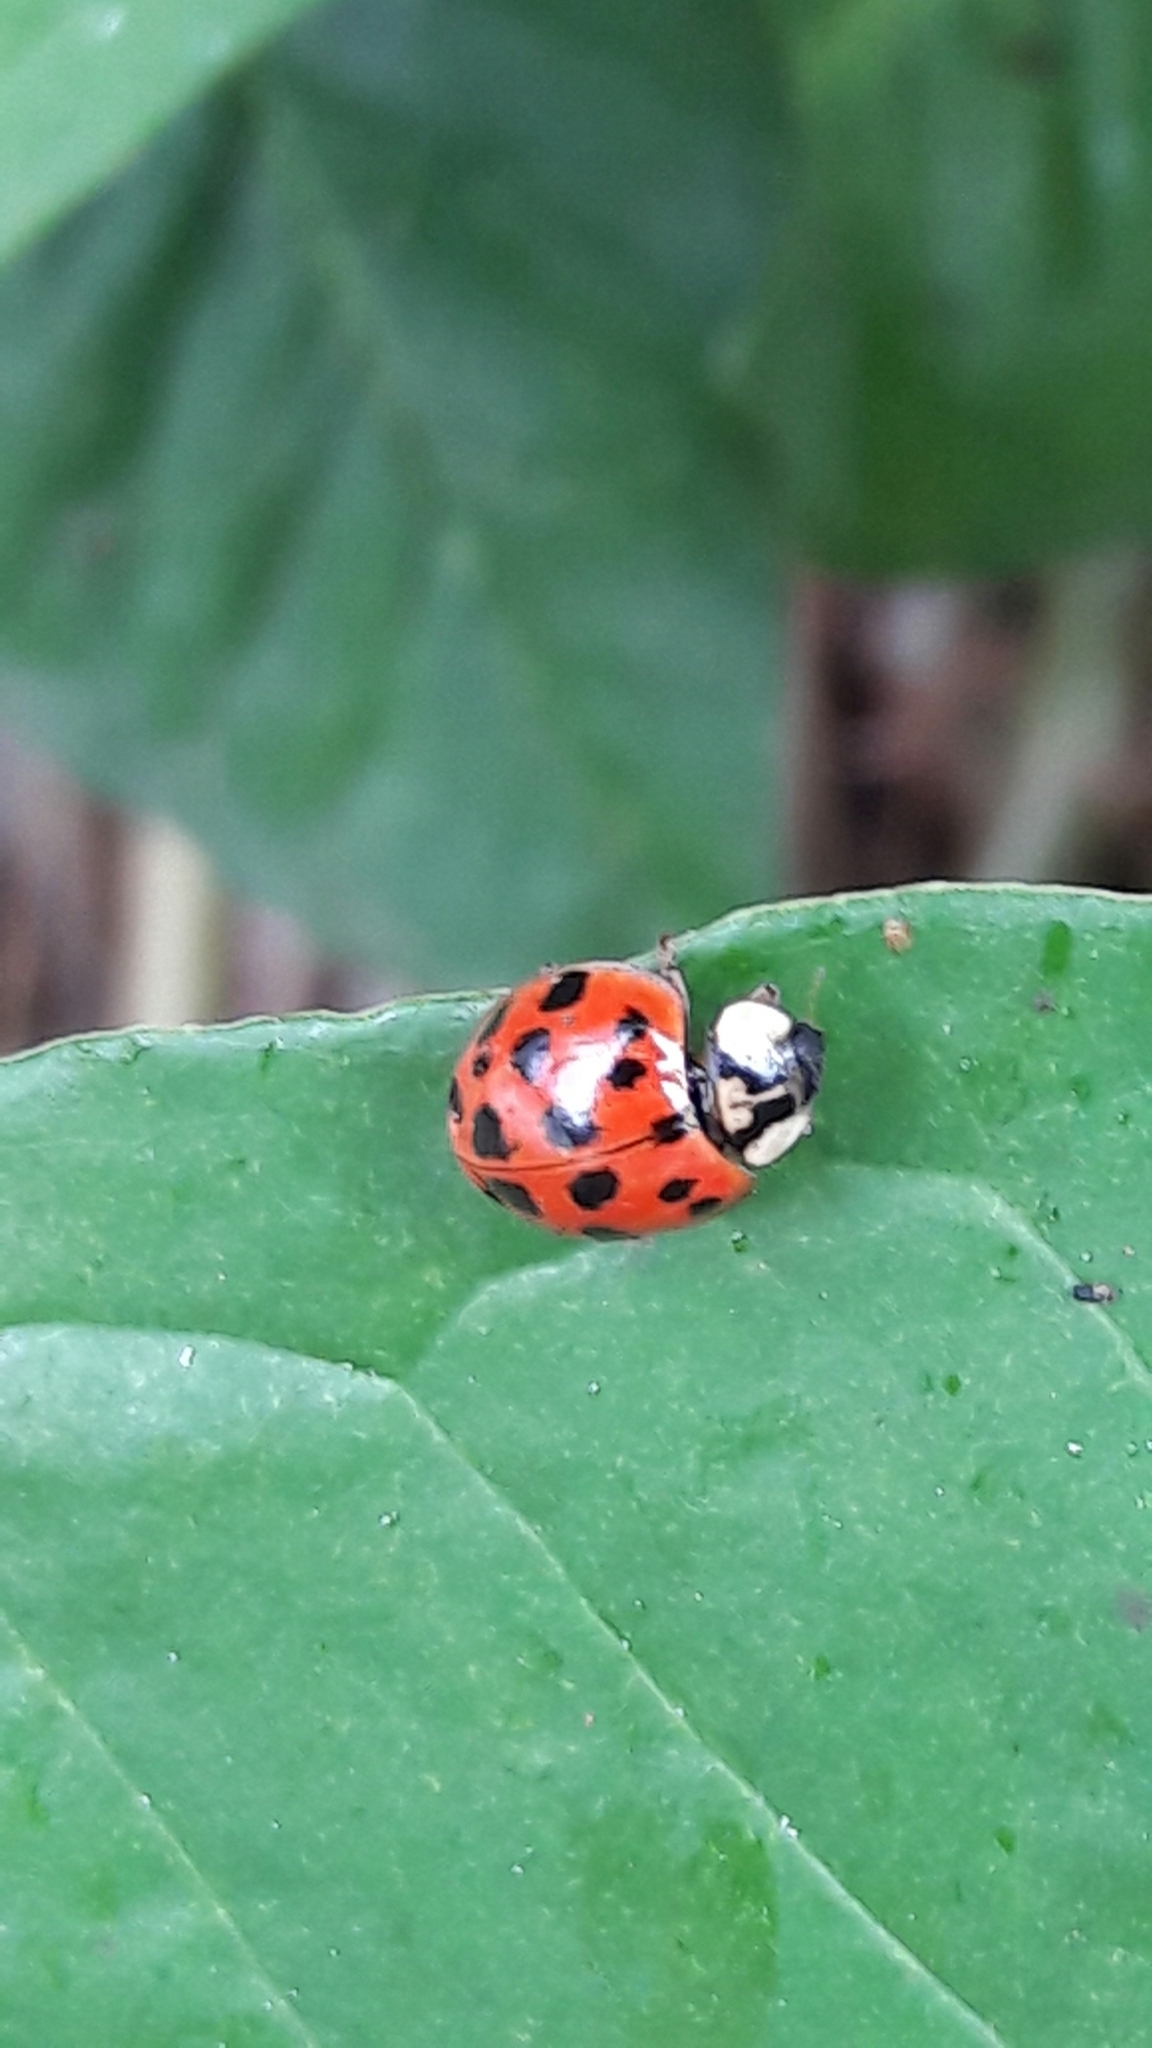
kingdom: Animalia
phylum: Arthropoda
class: Insecta
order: Coleoptera
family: Coccinellidae
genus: Harmonia
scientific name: Harmonia axyridis
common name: Harlequin ladybird
